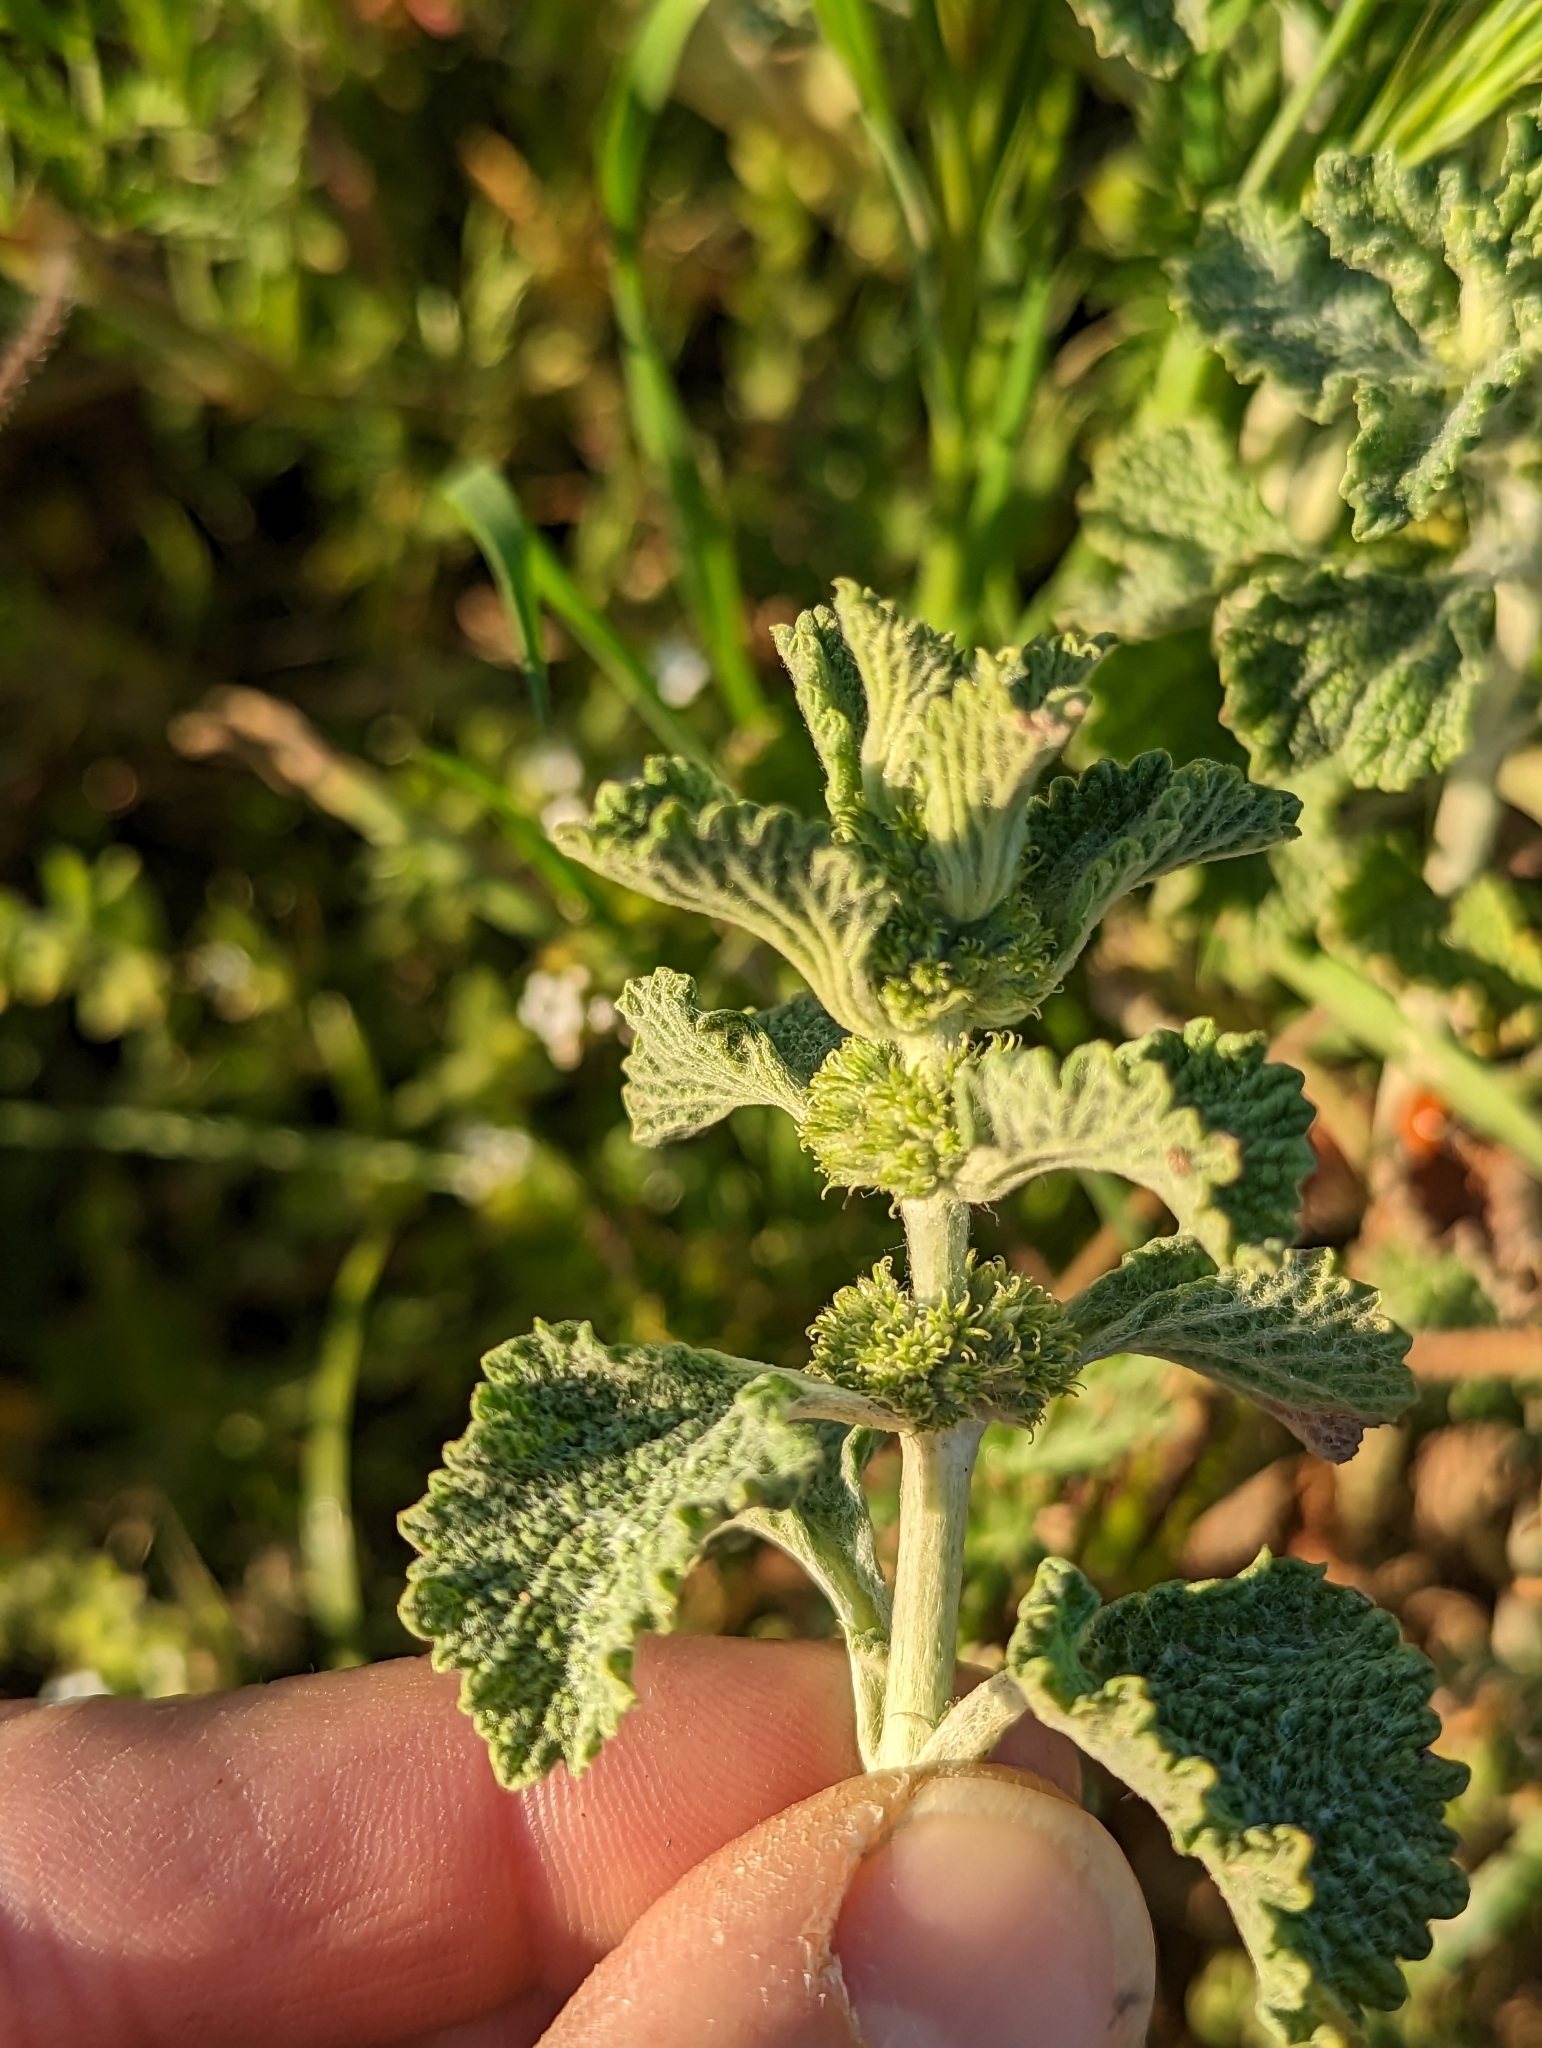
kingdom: Plantae
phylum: Tracheophyta
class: Magnoliopsida
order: Lamiales
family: Lamiaceae
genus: Marrubium
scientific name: Marrubium vulgare
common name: Horehound
